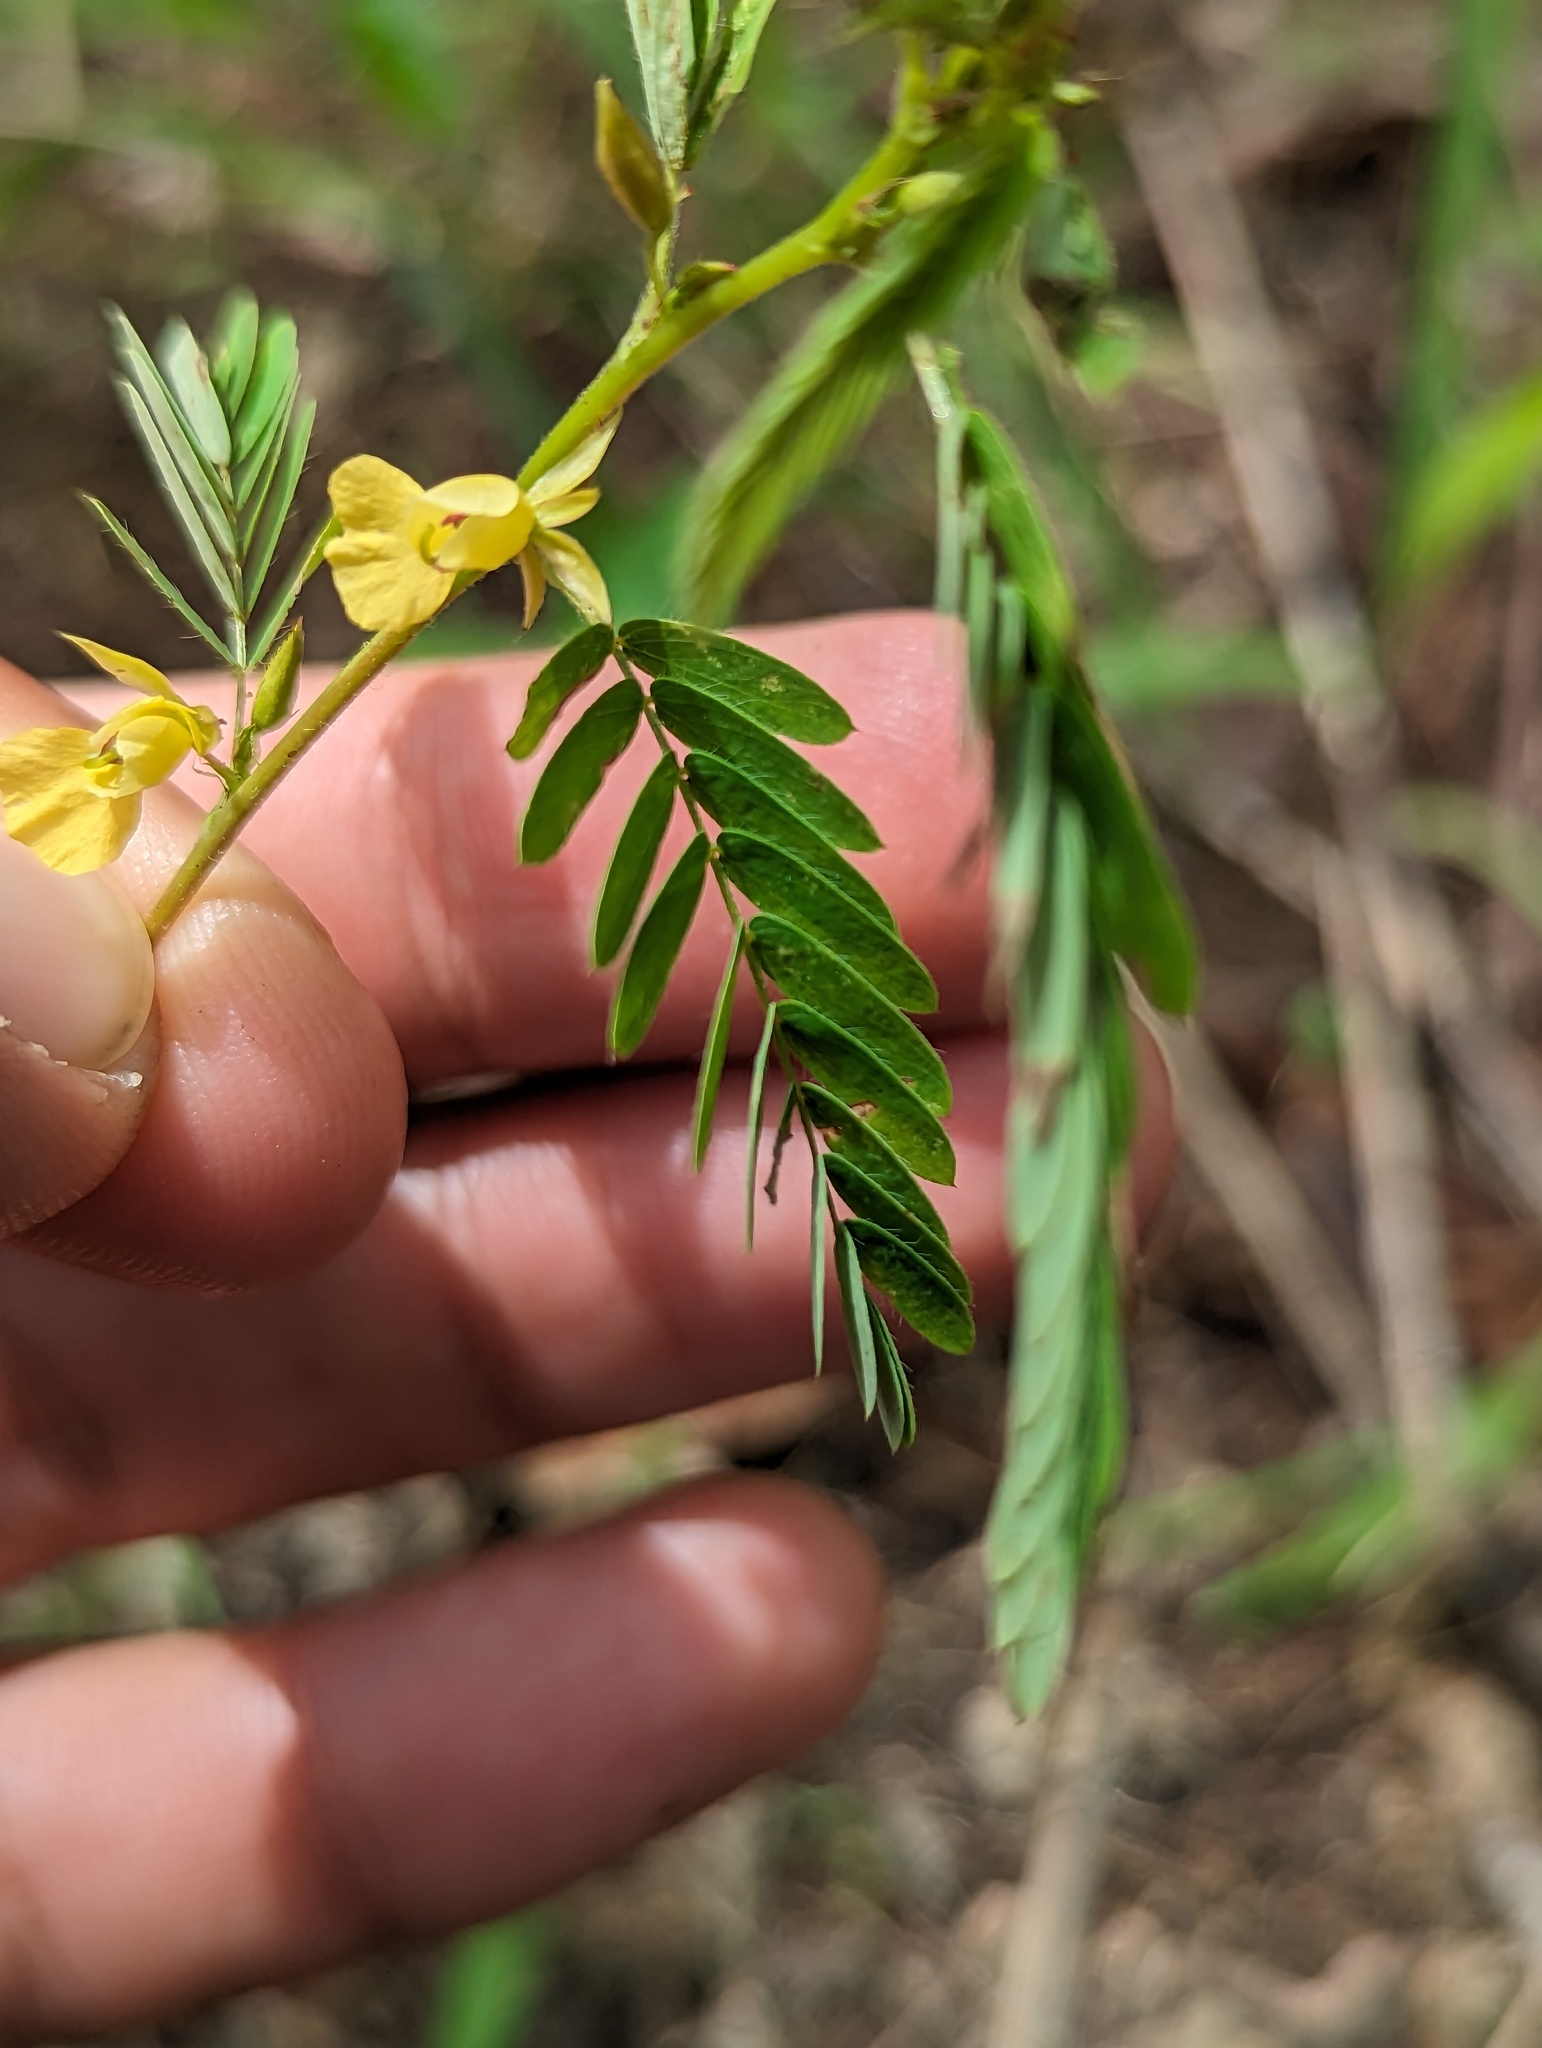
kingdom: Plantae
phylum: Tracheophyta
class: Magnoliopsida
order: Fabales
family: Fabaceae
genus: Chamaecrista
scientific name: Chamaecrista nictitans
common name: Sensitive cassia
